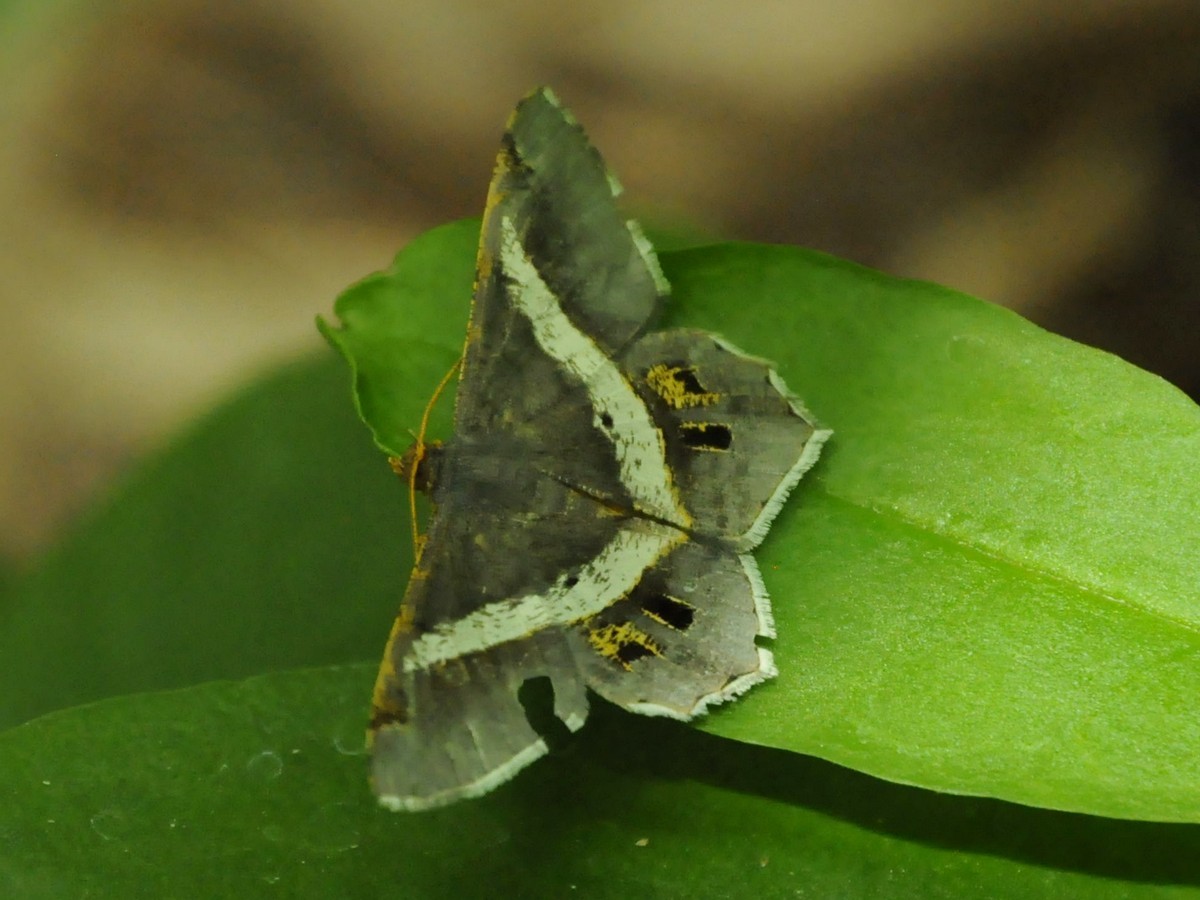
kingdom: Animalia
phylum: Arthropoda
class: Insecta
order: Lepidoptera
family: Geometridae
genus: Chiasmia
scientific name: Chiasmia eleonora
